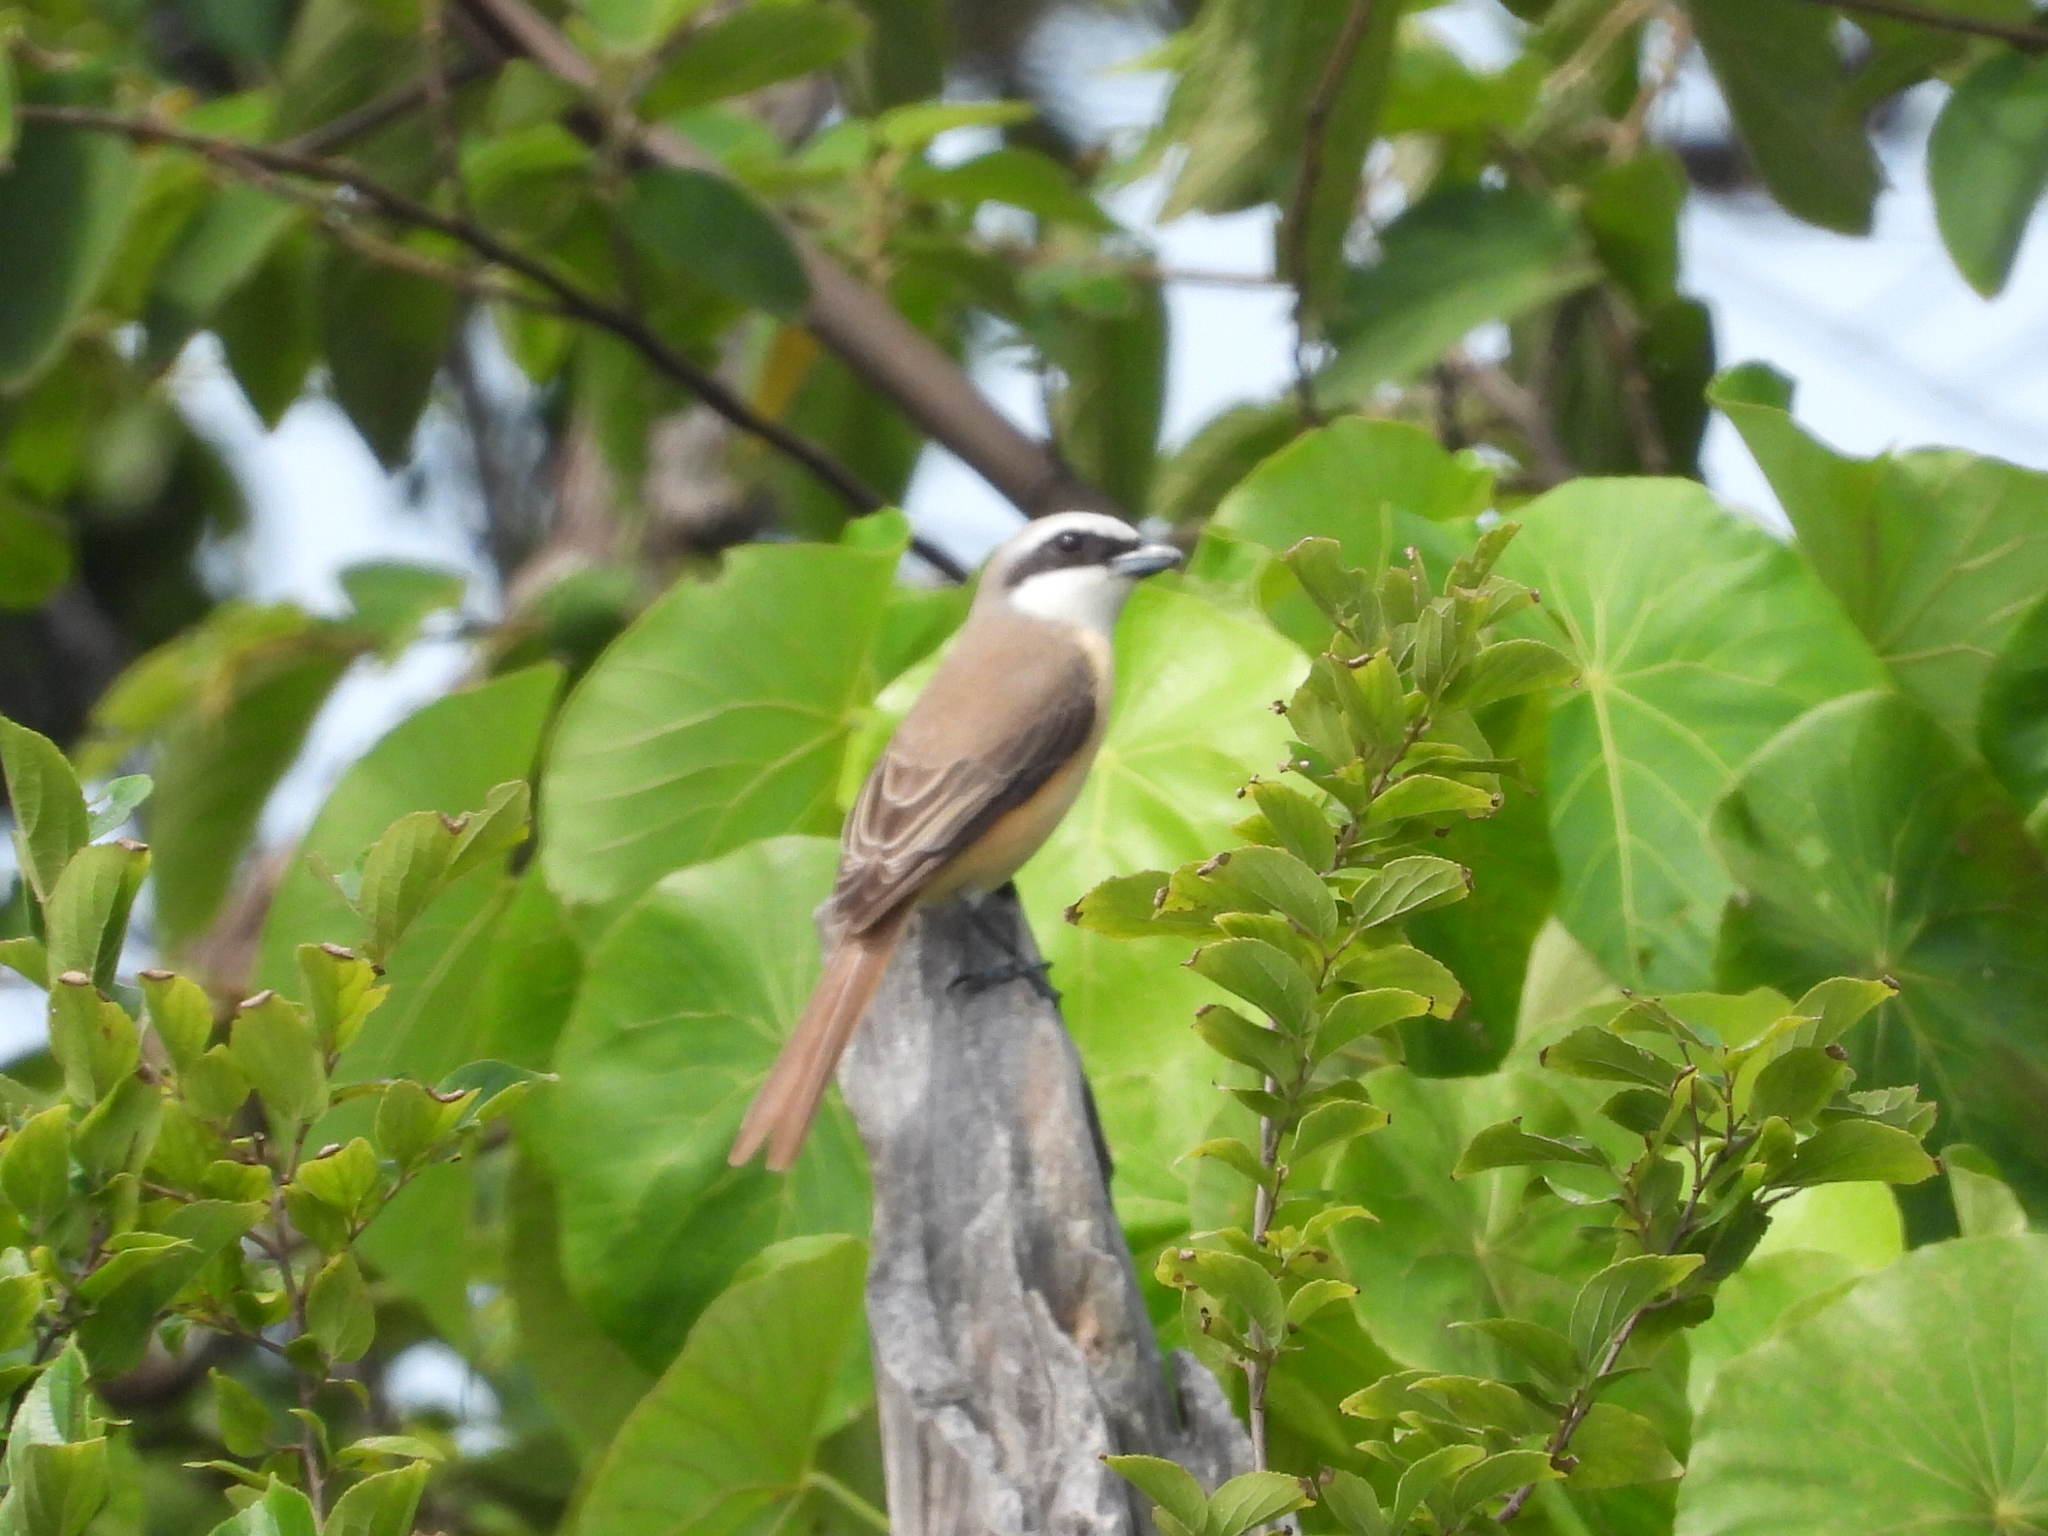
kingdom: Animalia
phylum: Chordata
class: Aves
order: Passeriformes
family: Laniidae
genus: Lanius
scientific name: Lanius cristatus
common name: Brown shrike
